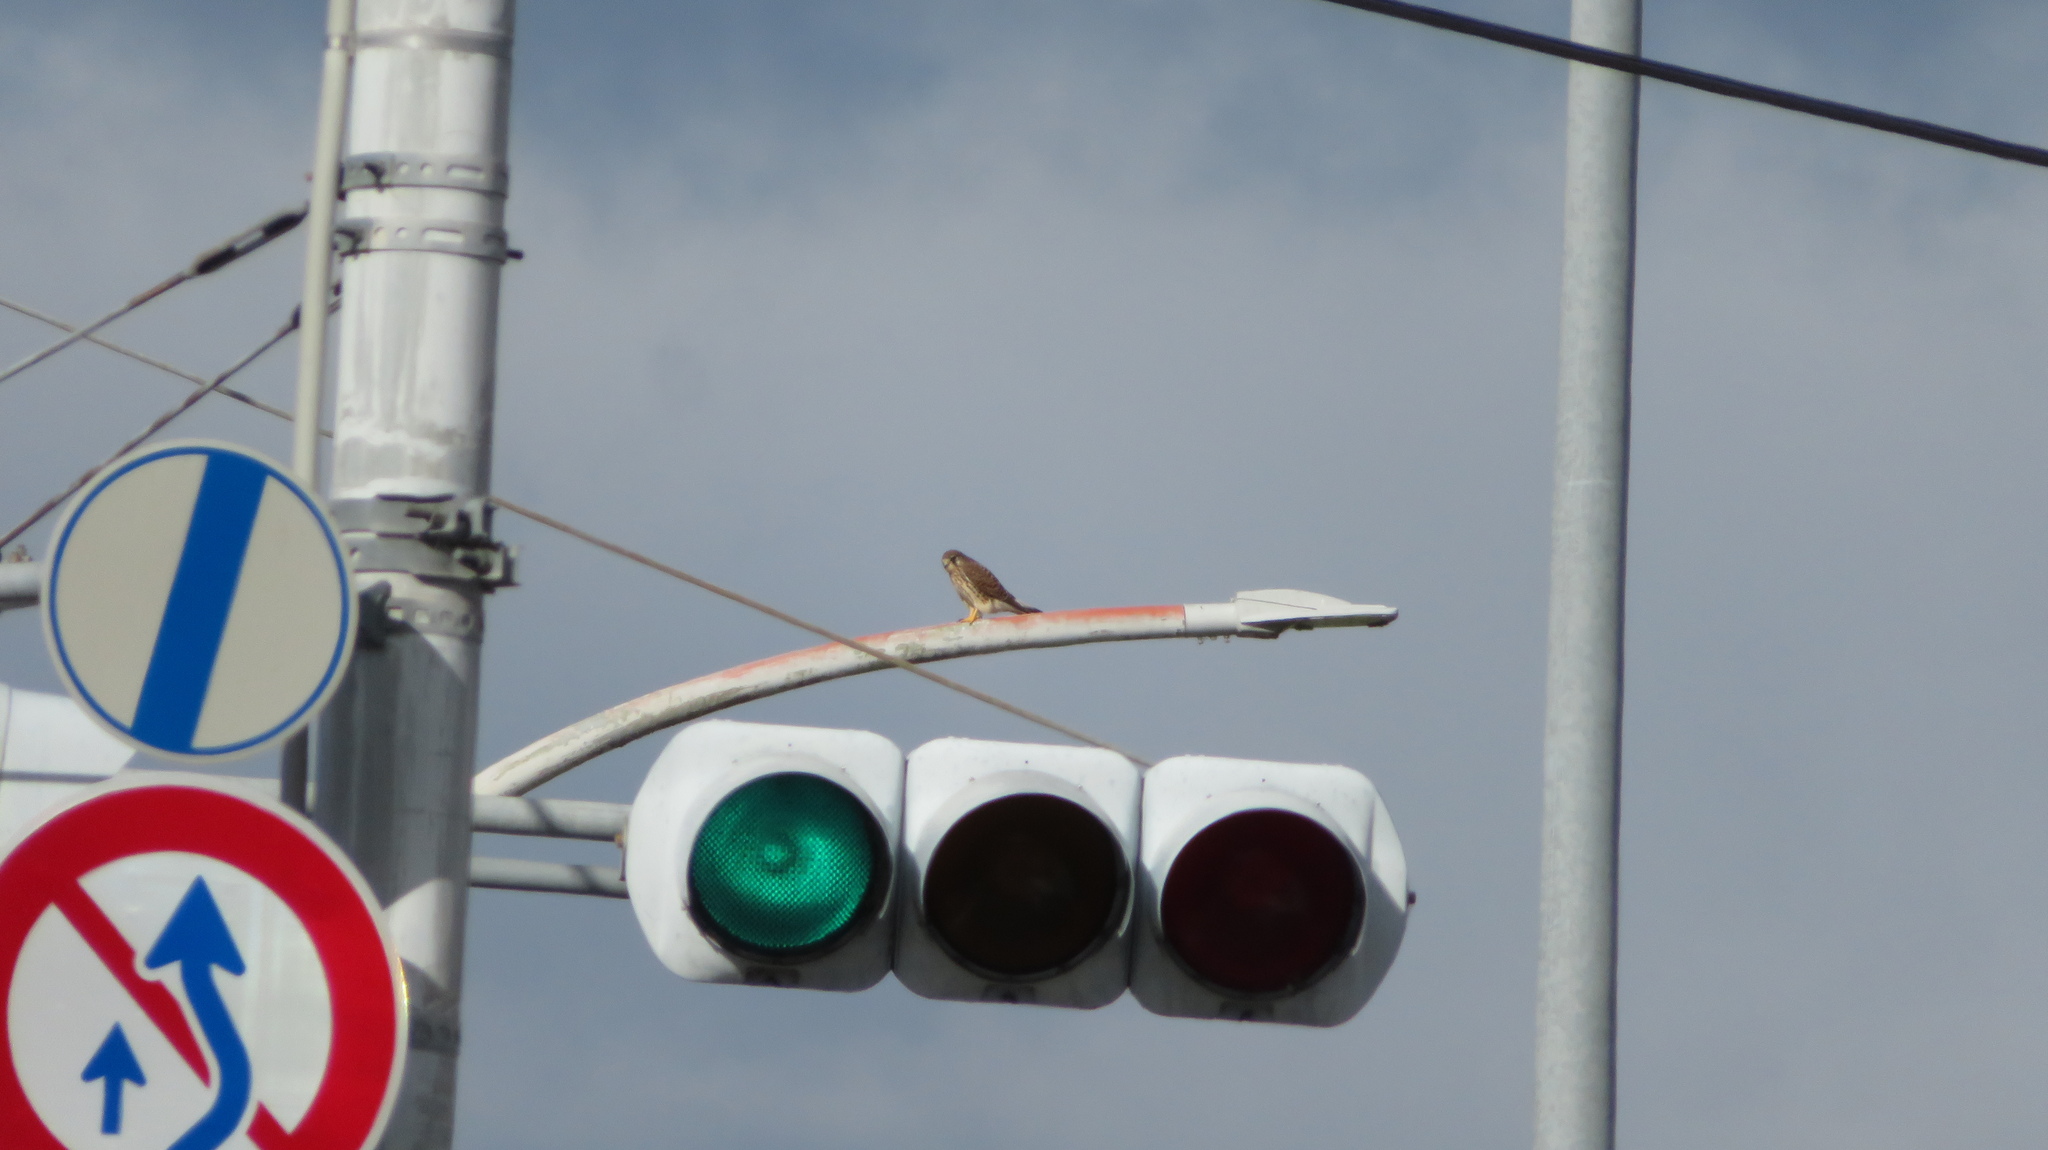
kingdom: Animalia
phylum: Chordata
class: Aves
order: Falconiformes
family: Falconidae
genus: Falco
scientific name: Falco tinnunculus
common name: Common kestrel
